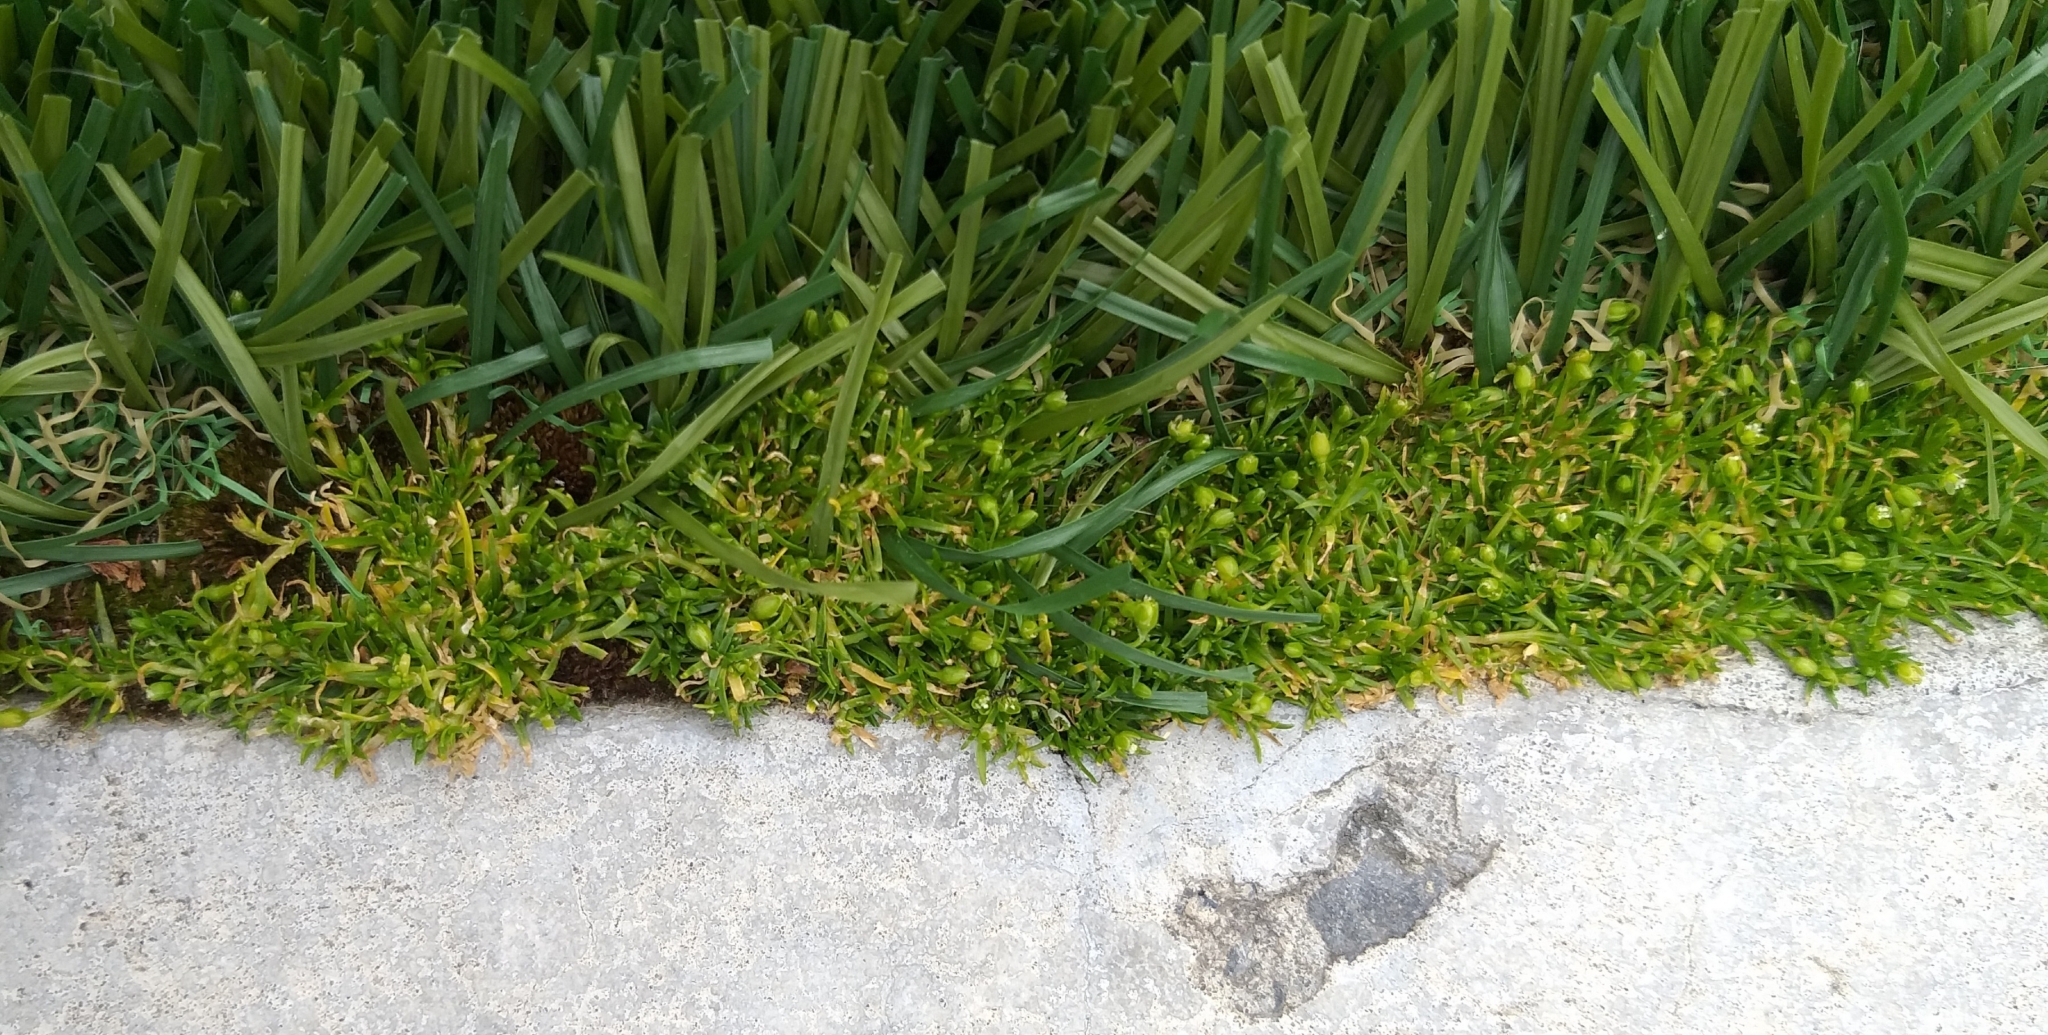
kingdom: Plantae
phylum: Tracheophyta
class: Magnoliopsida
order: Caryophyllales
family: Caryophyllaceae
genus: Sagina
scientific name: Sagina procumbens
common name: Procumbent pearlwort
